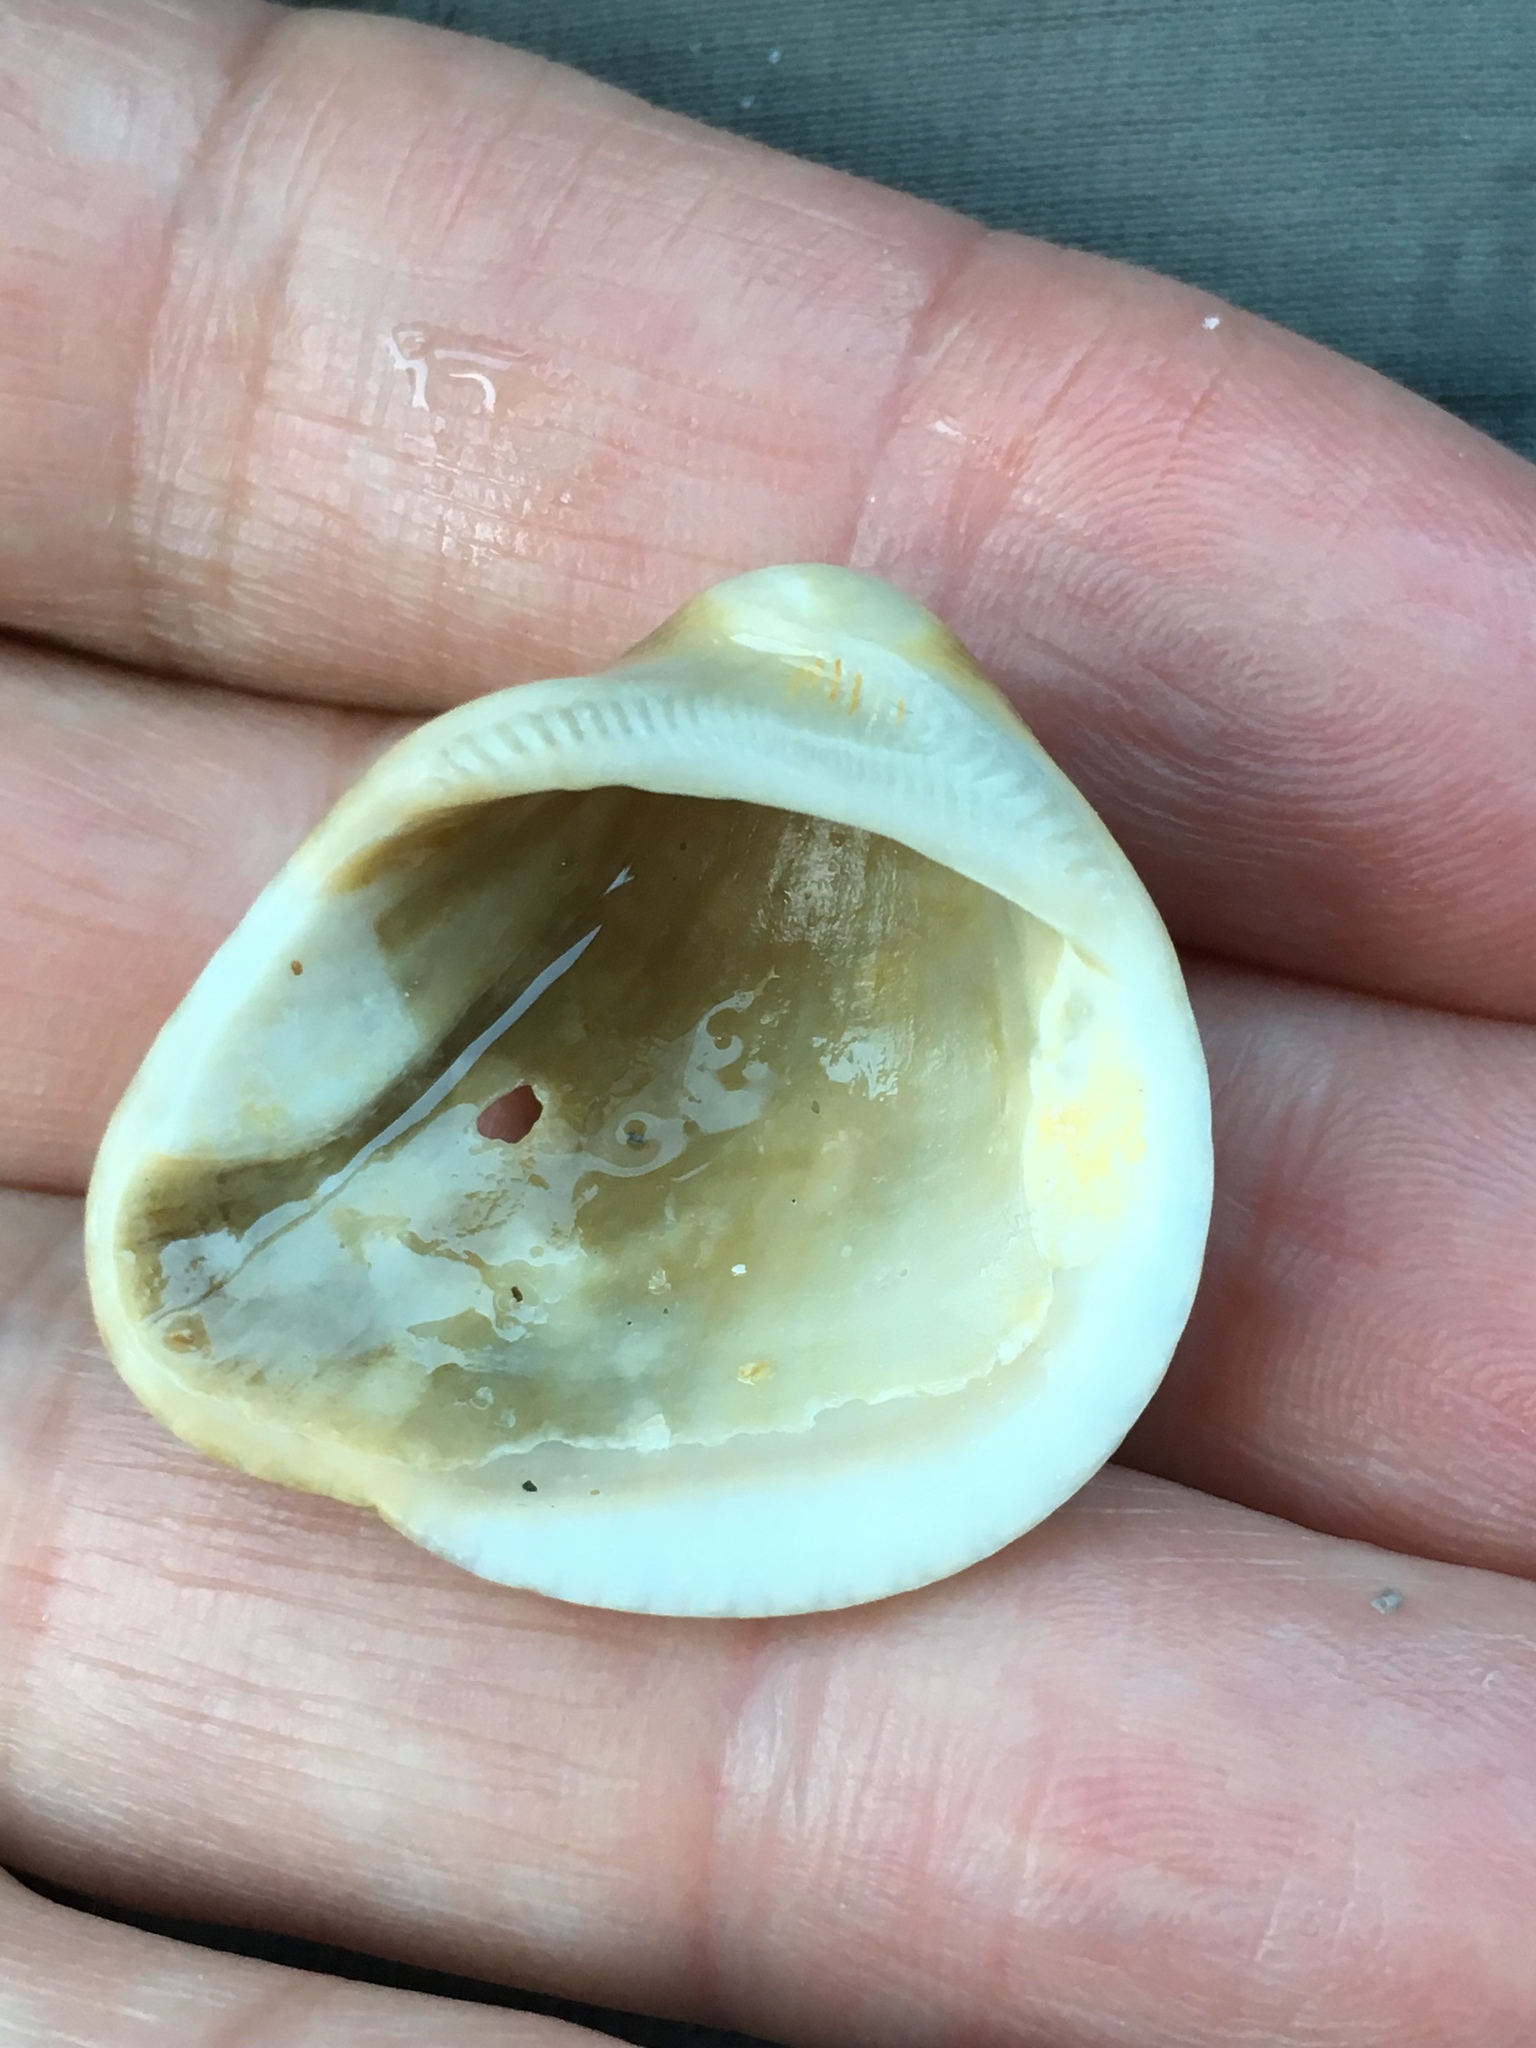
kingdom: Animalia
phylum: Mollusca
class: Bivalvia
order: Arcida
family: Noetiidae
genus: Noetia
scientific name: Noetia ponderosa
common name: Ponderous ark
